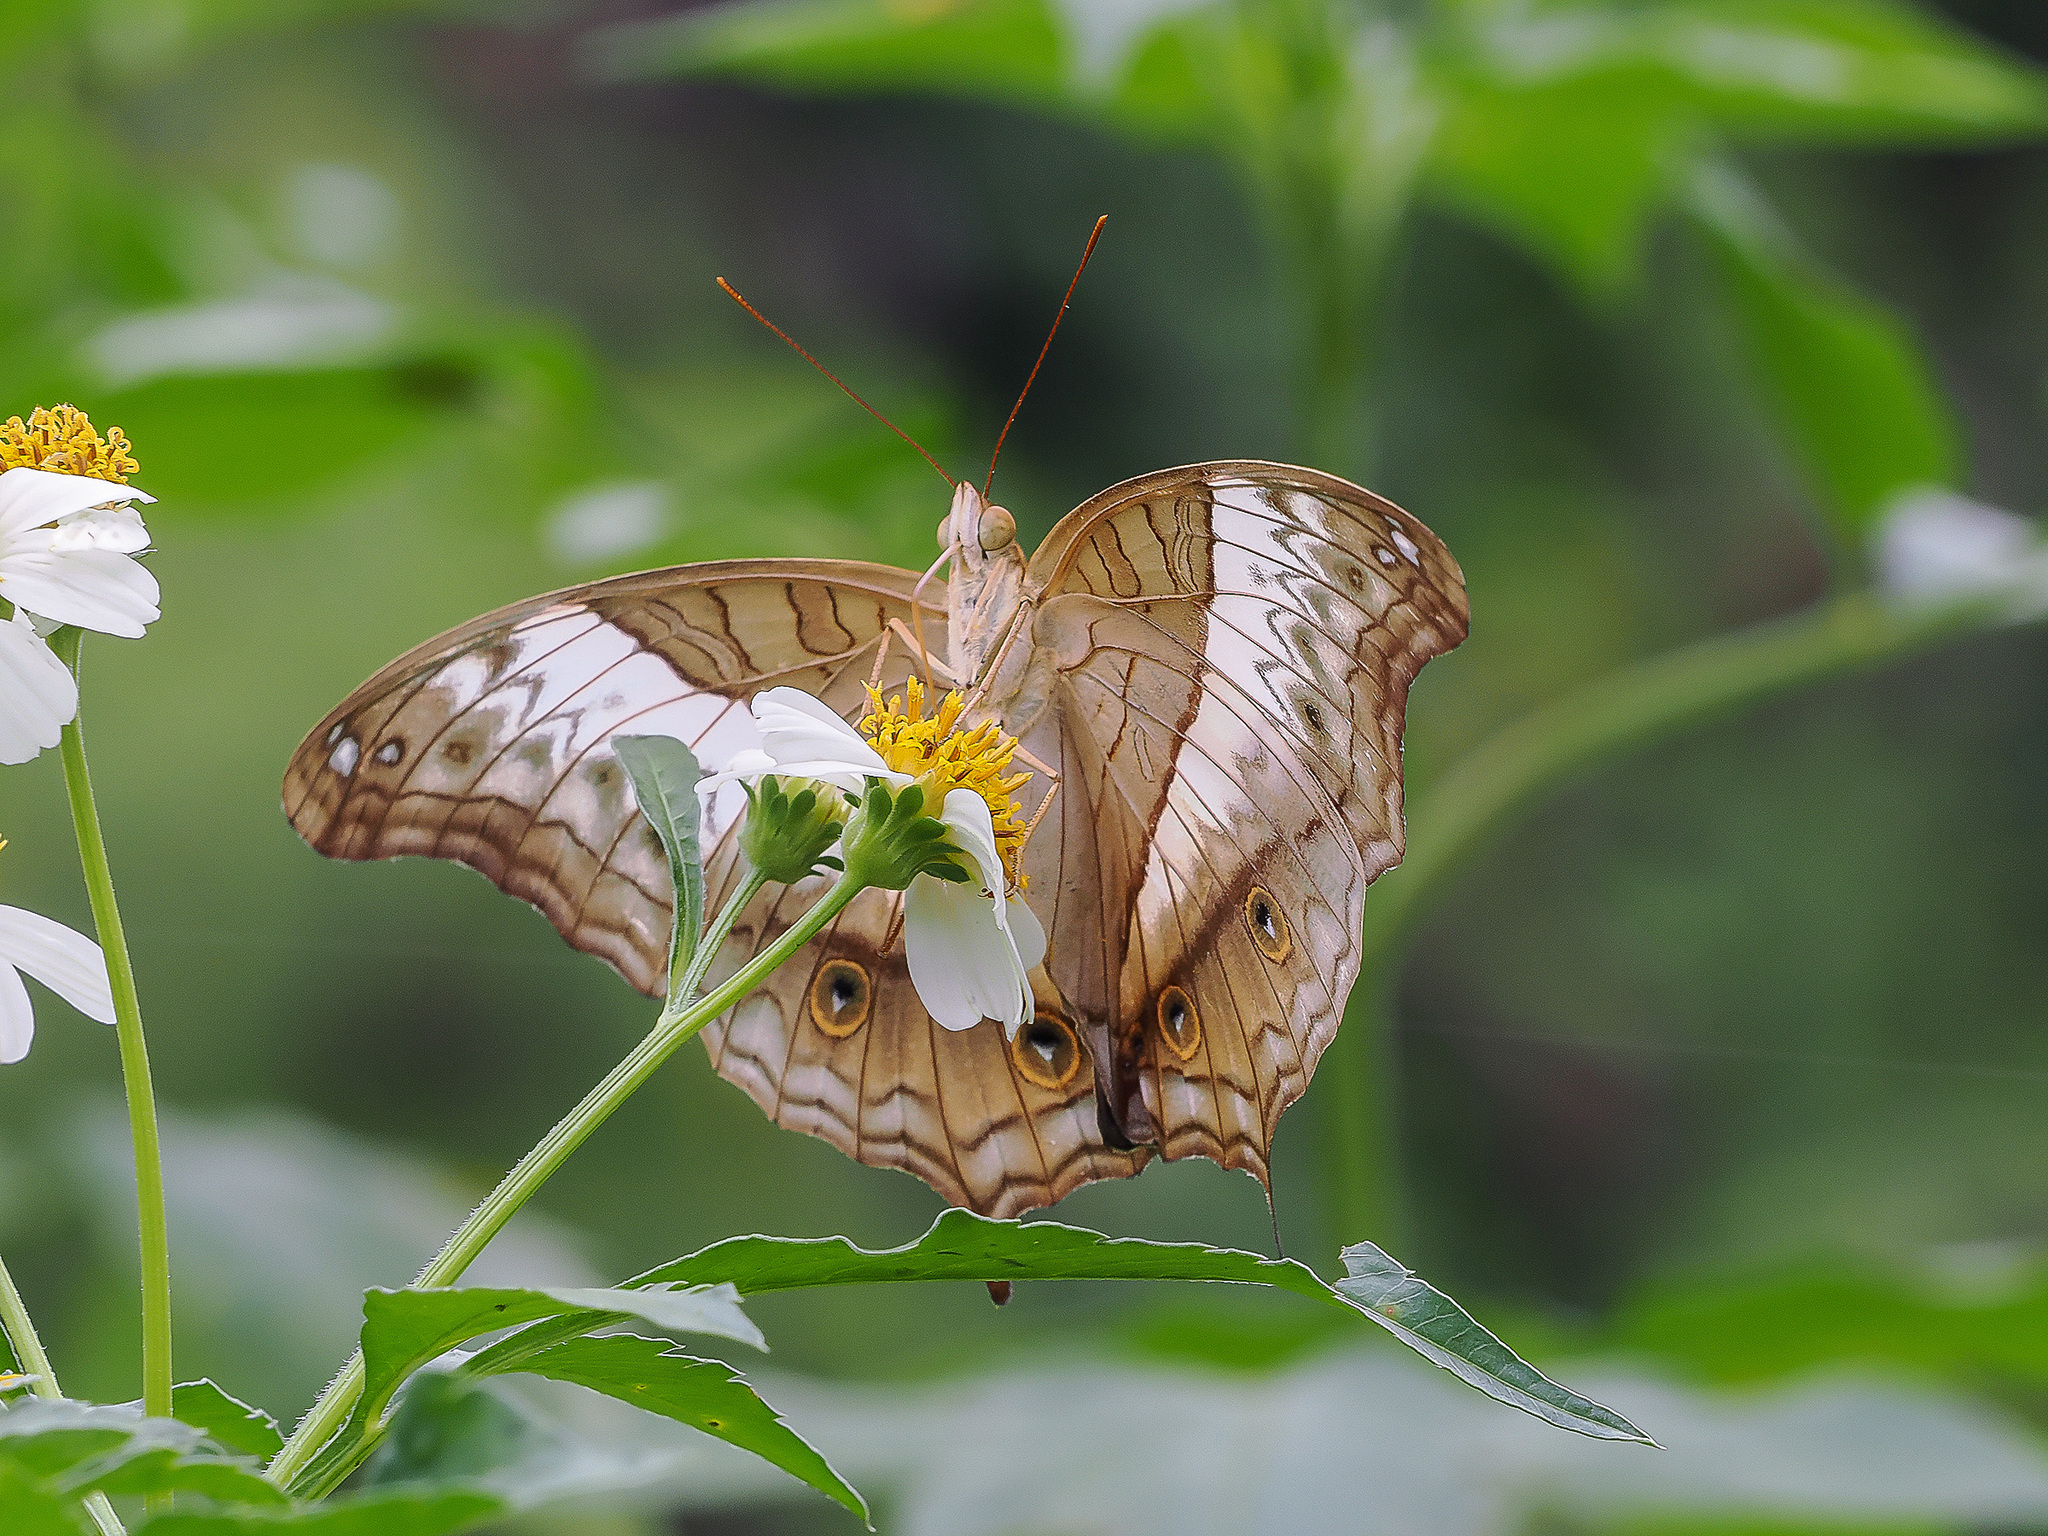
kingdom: Animalia
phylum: Arthropoda
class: Insecta
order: Lepidoptera
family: Nymphalidae
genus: Vindula
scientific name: Vindula deione
